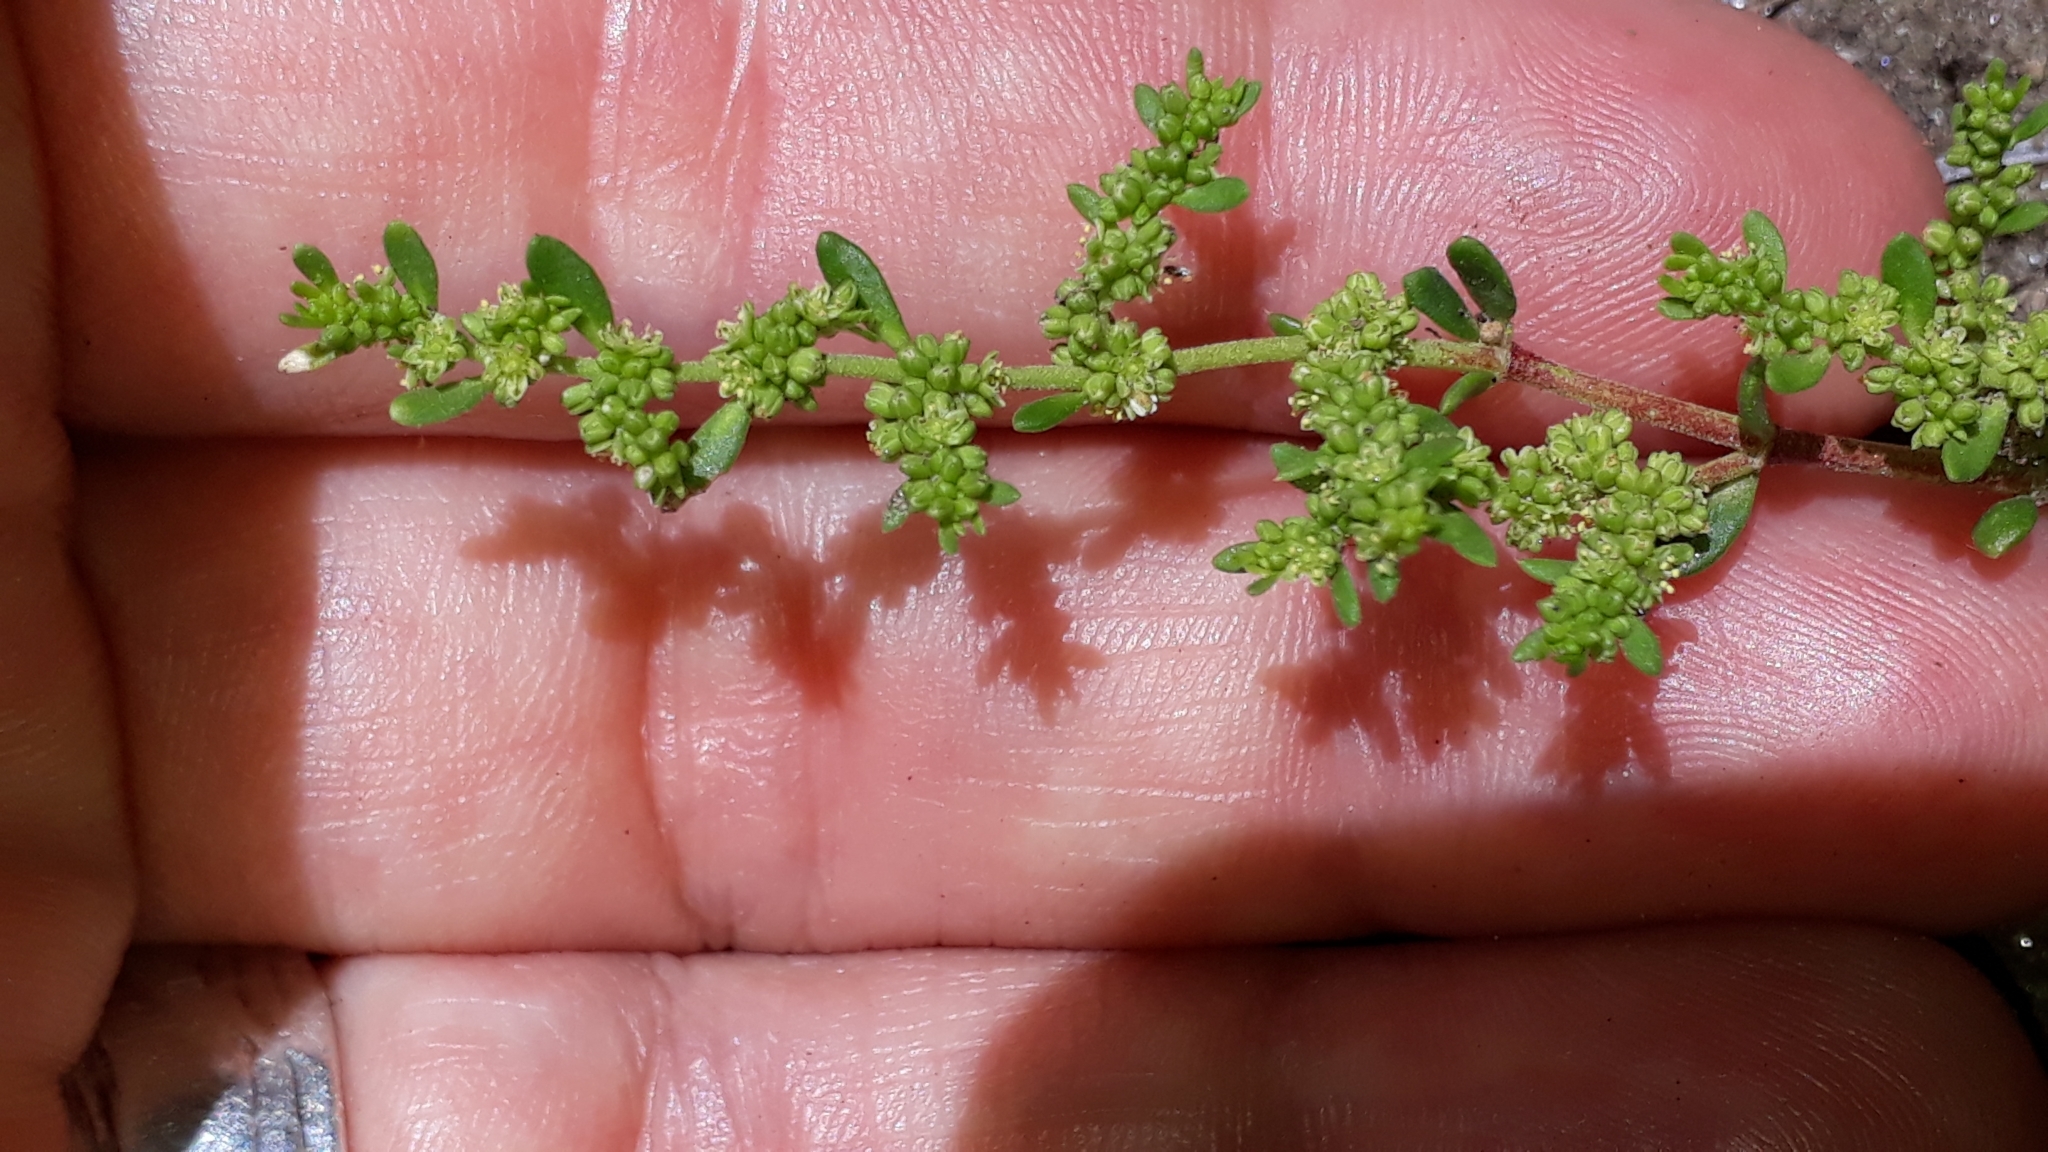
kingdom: Plantae
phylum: Tracheophyta
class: Magnoliopsida
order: Caryophyllales
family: Caryophyllaceae
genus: Herniaria
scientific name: Herniaria glabra
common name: Smooth rupturewort
